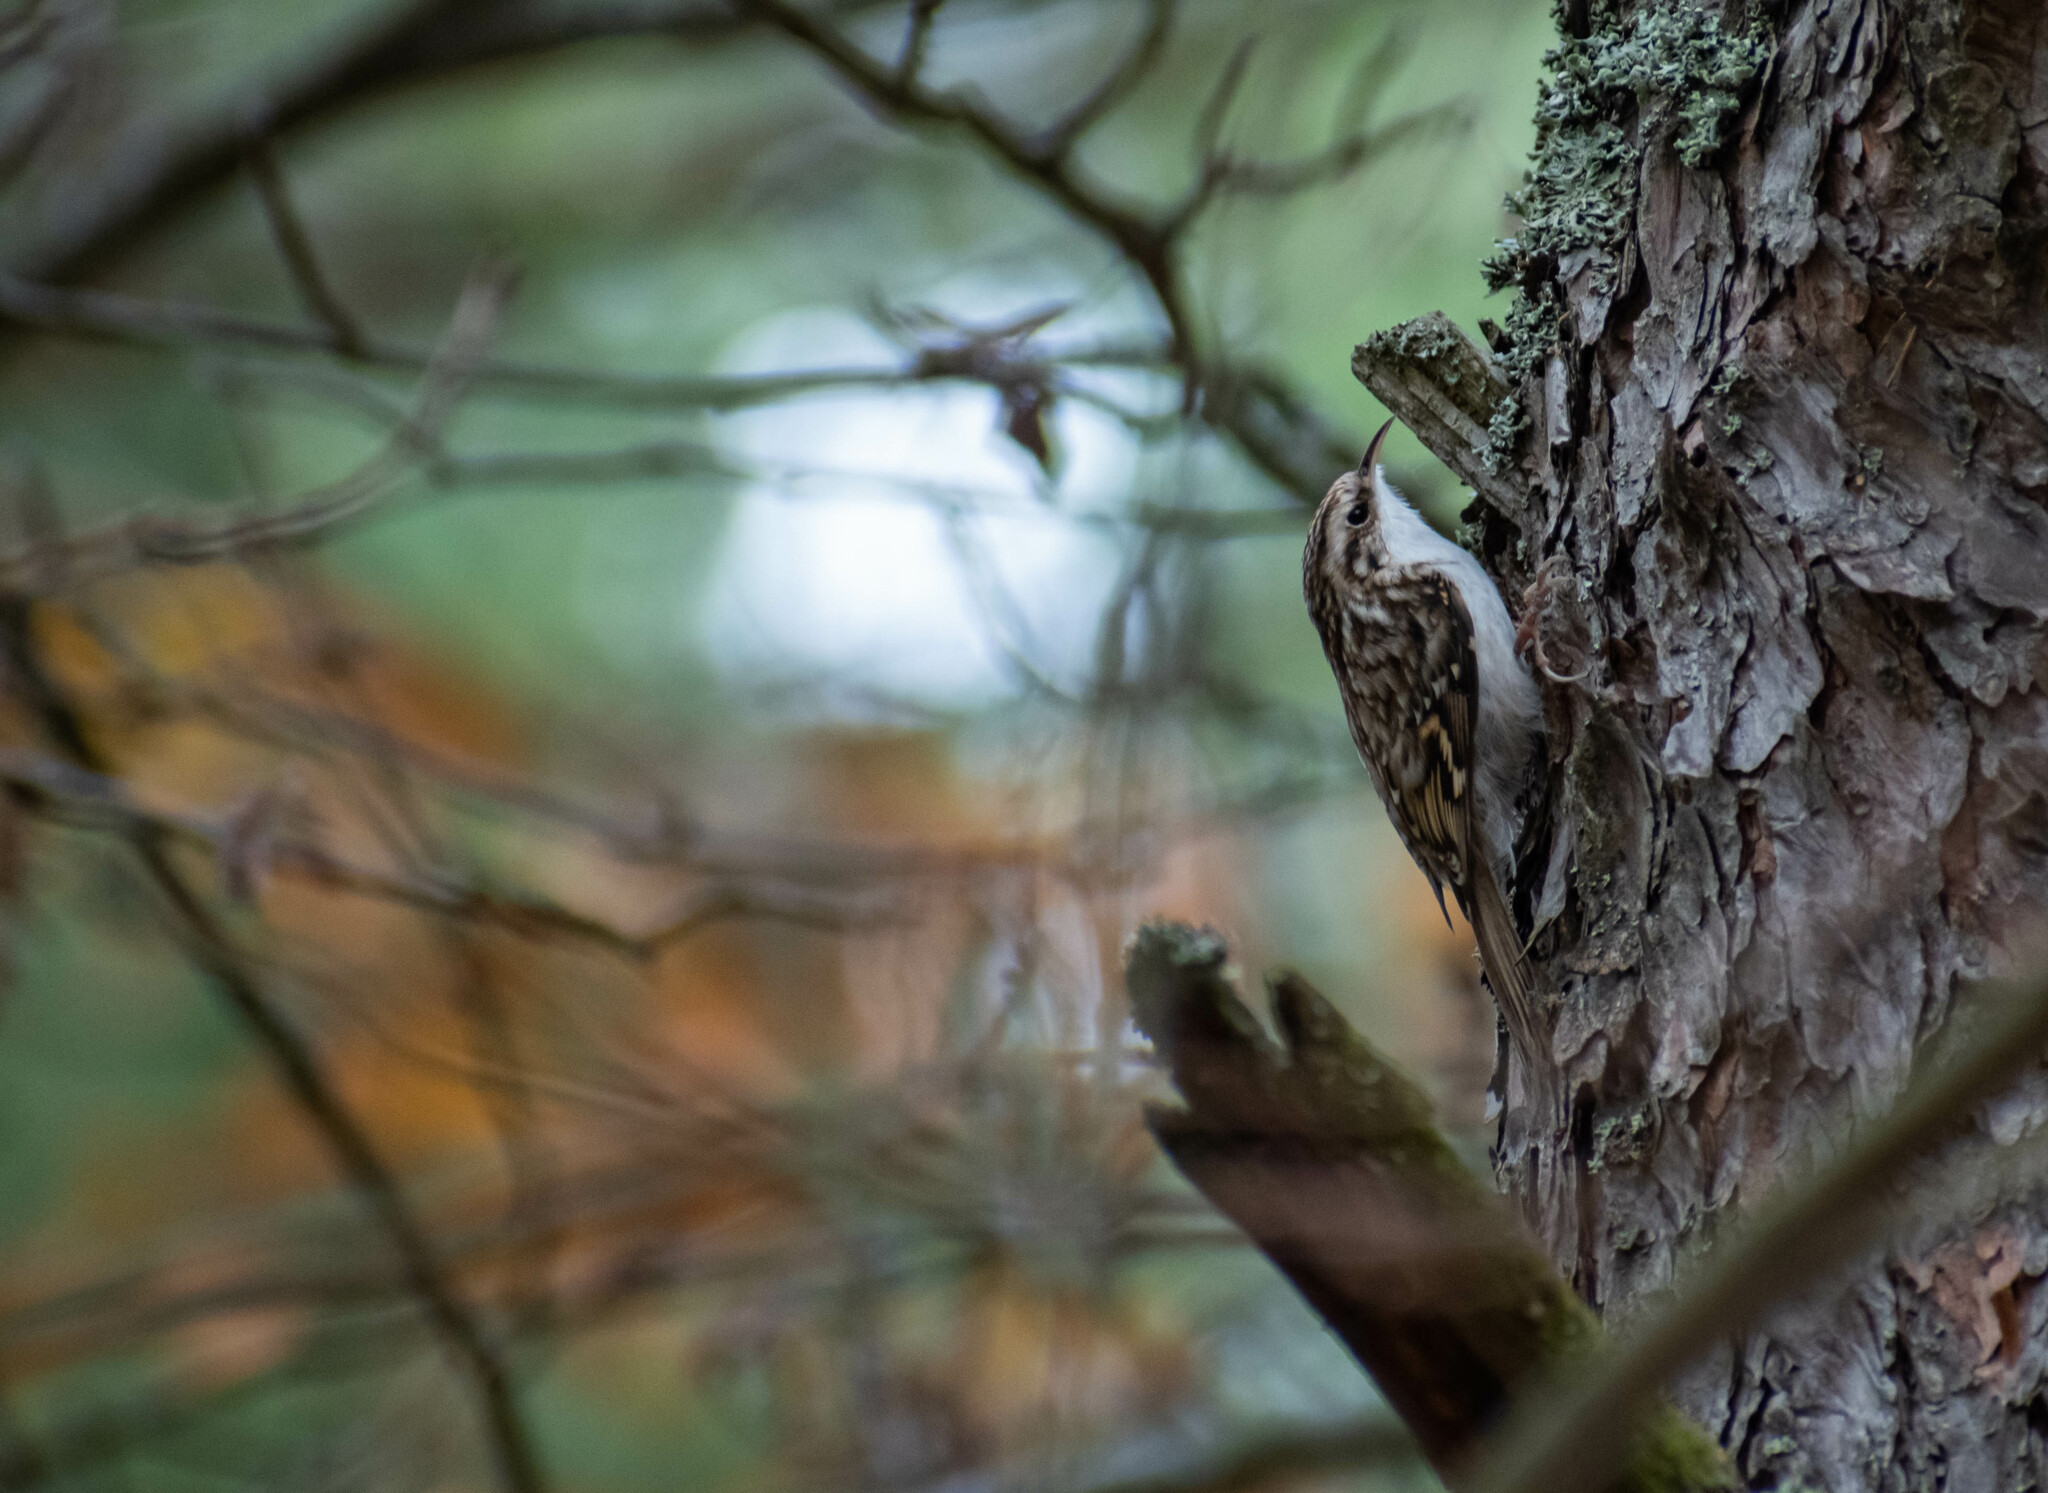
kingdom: Animalia
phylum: Chordata
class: Aves
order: Passeriformes
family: Certhiidae
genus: Certhia
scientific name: Certhia familiaris
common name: Eurasian treecreeper
